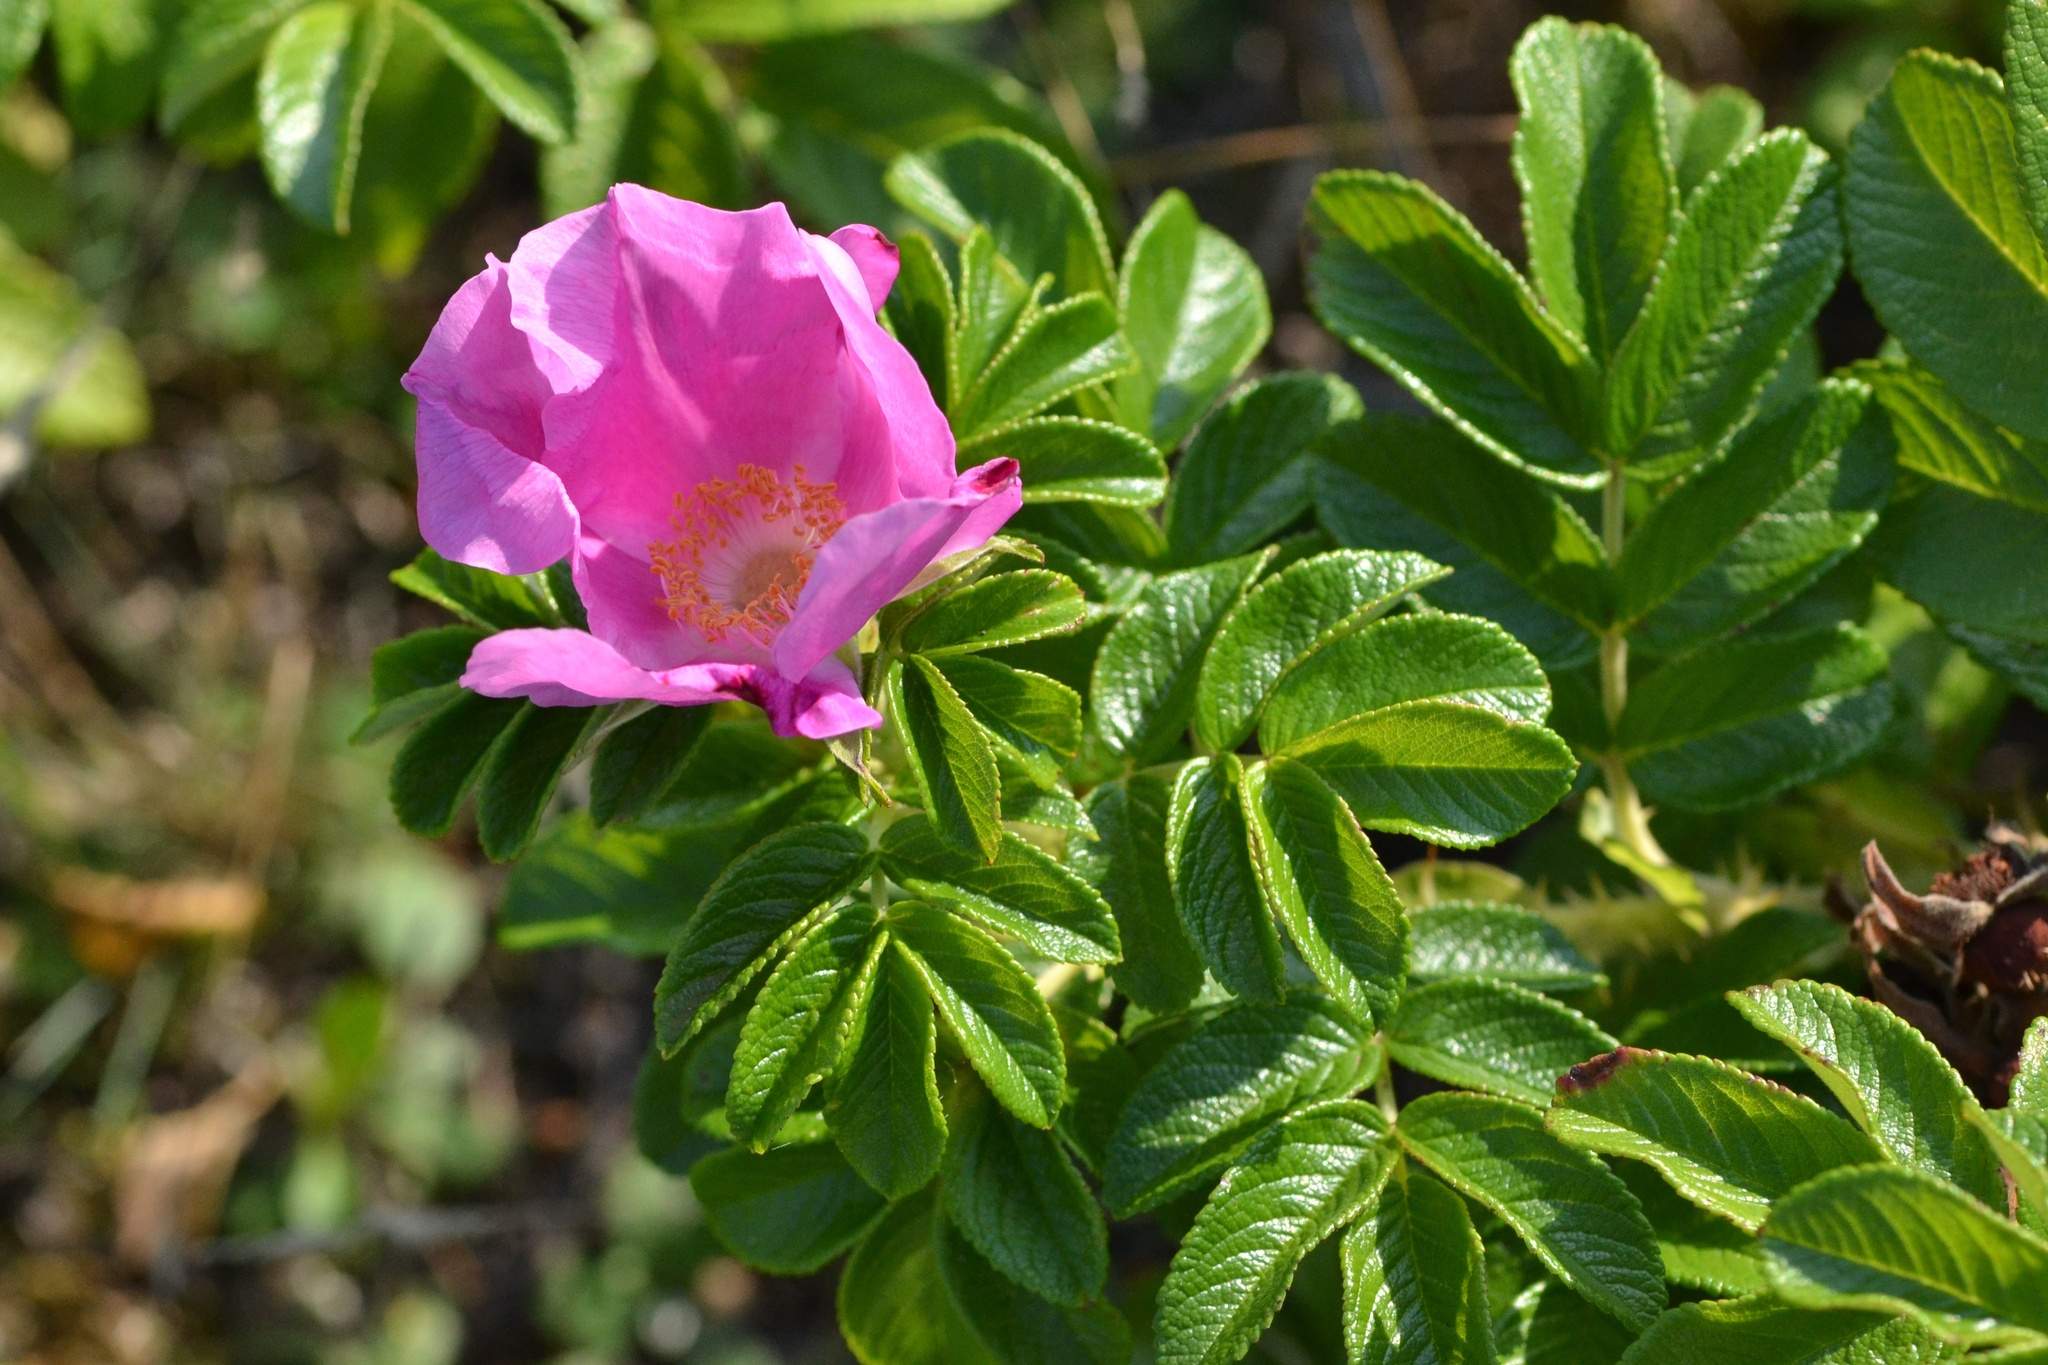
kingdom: Plantae
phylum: Tracheophyta
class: Magnoliopsida
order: Rosales
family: Rosaceae
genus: Rosa
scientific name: Rosa rugosa
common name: Japanese rose
